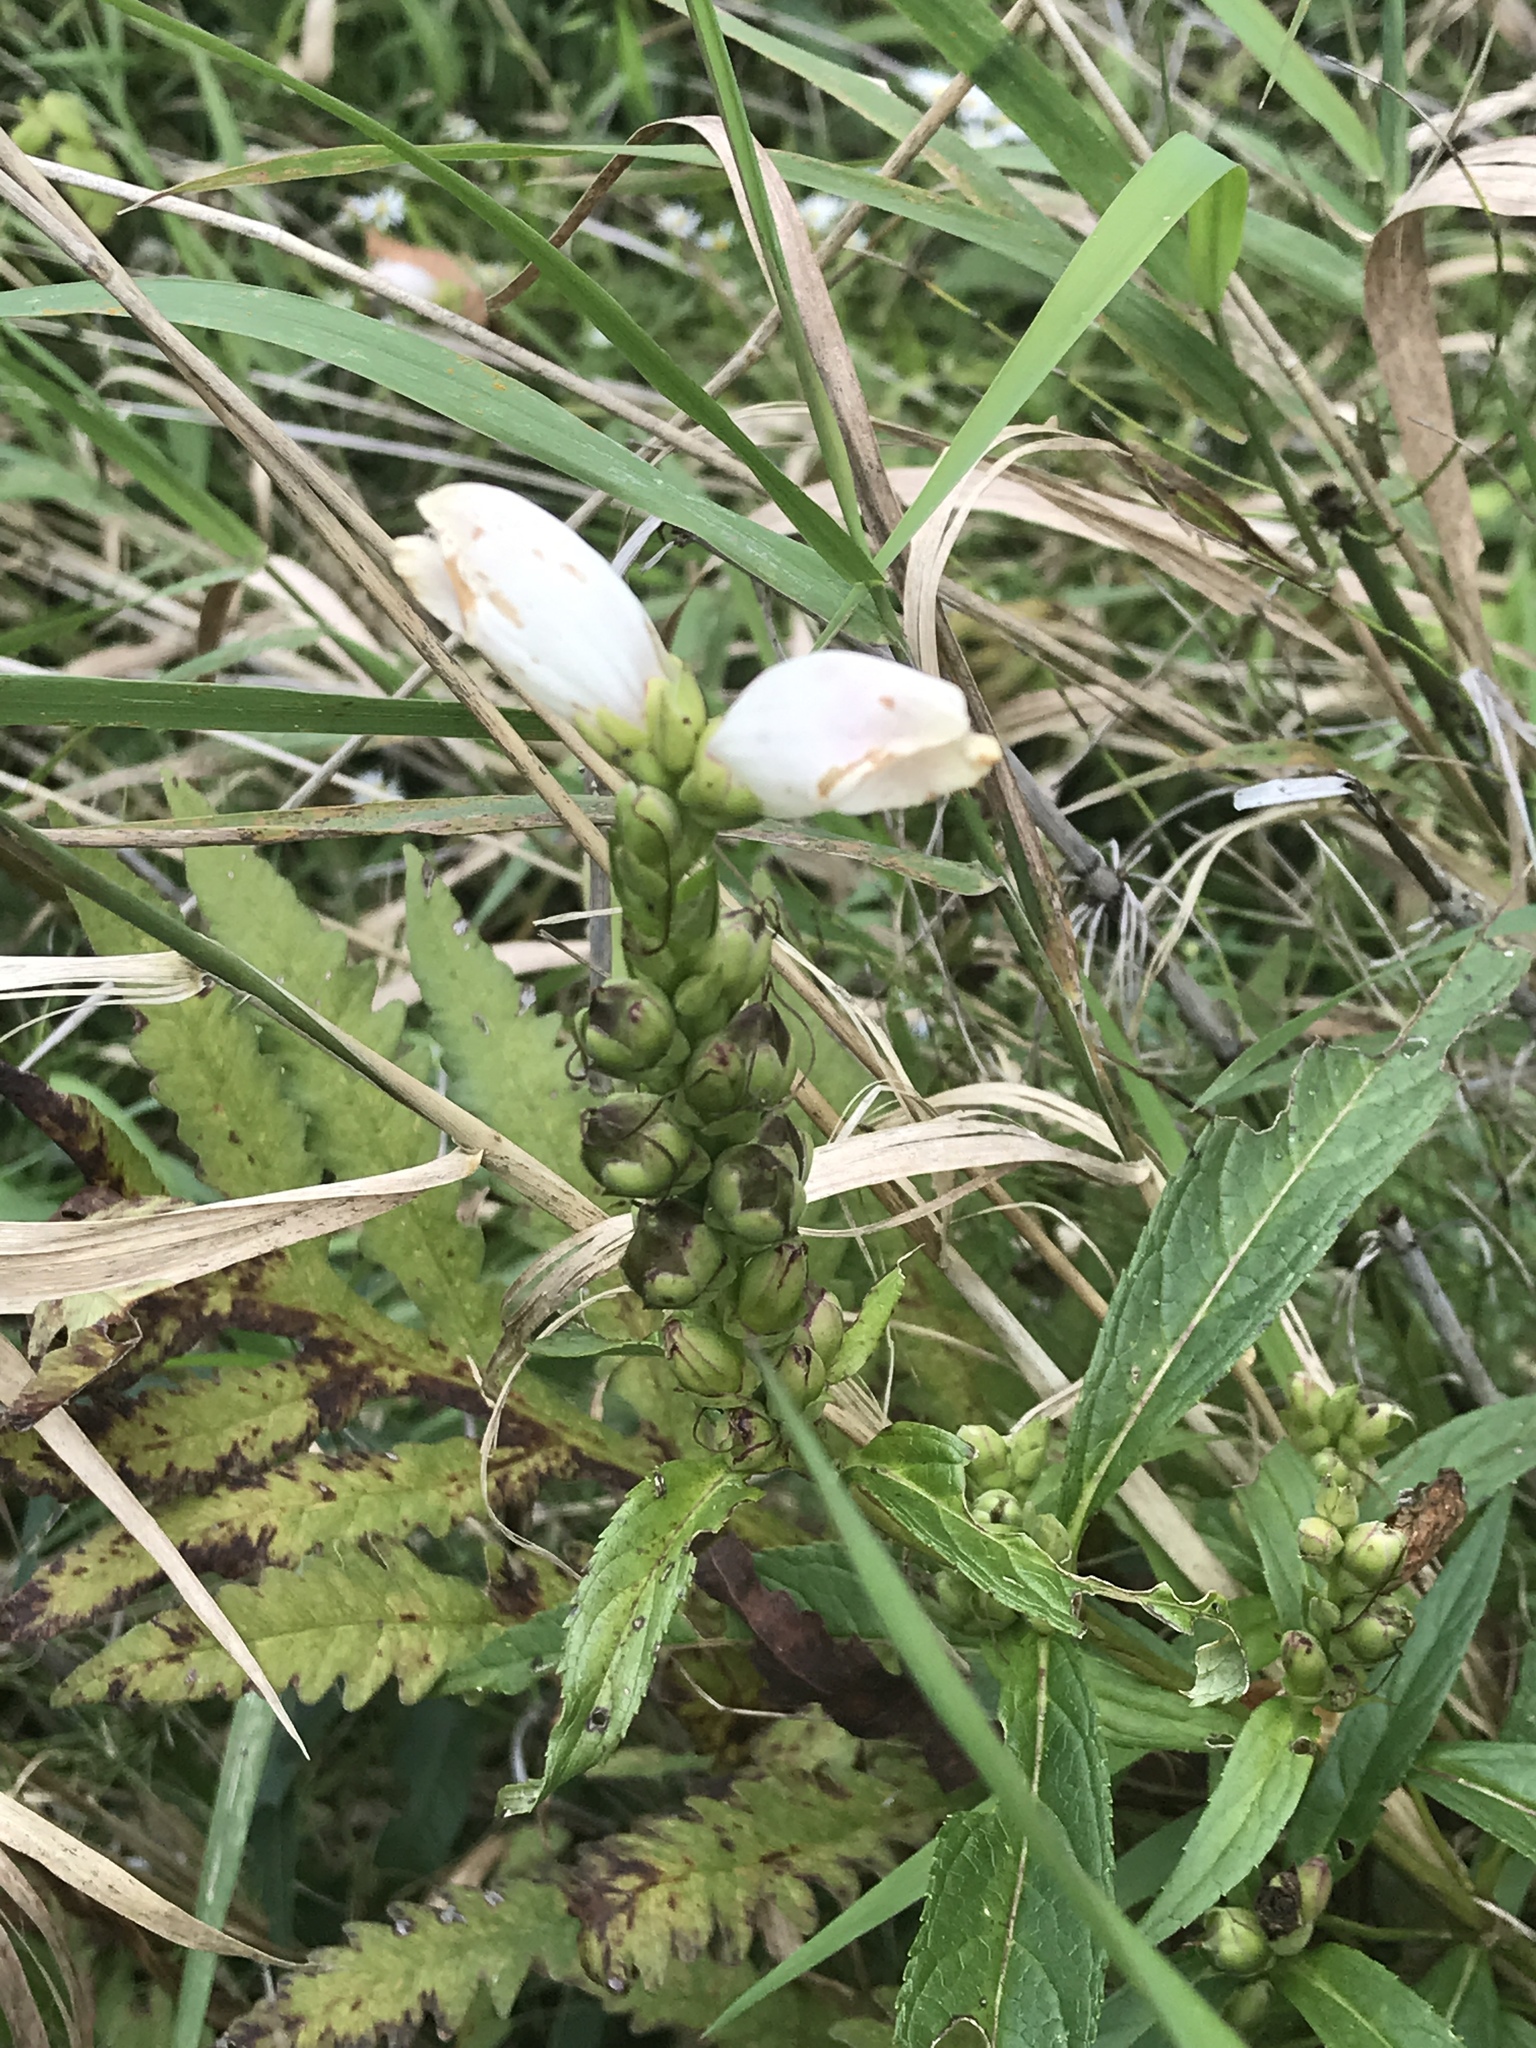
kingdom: Plantae
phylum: Tracheophyta
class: Magnoliopsida
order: Lamiales
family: Plantaginaceae
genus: Chelone
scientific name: Chelone glabra
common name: Snakehead
